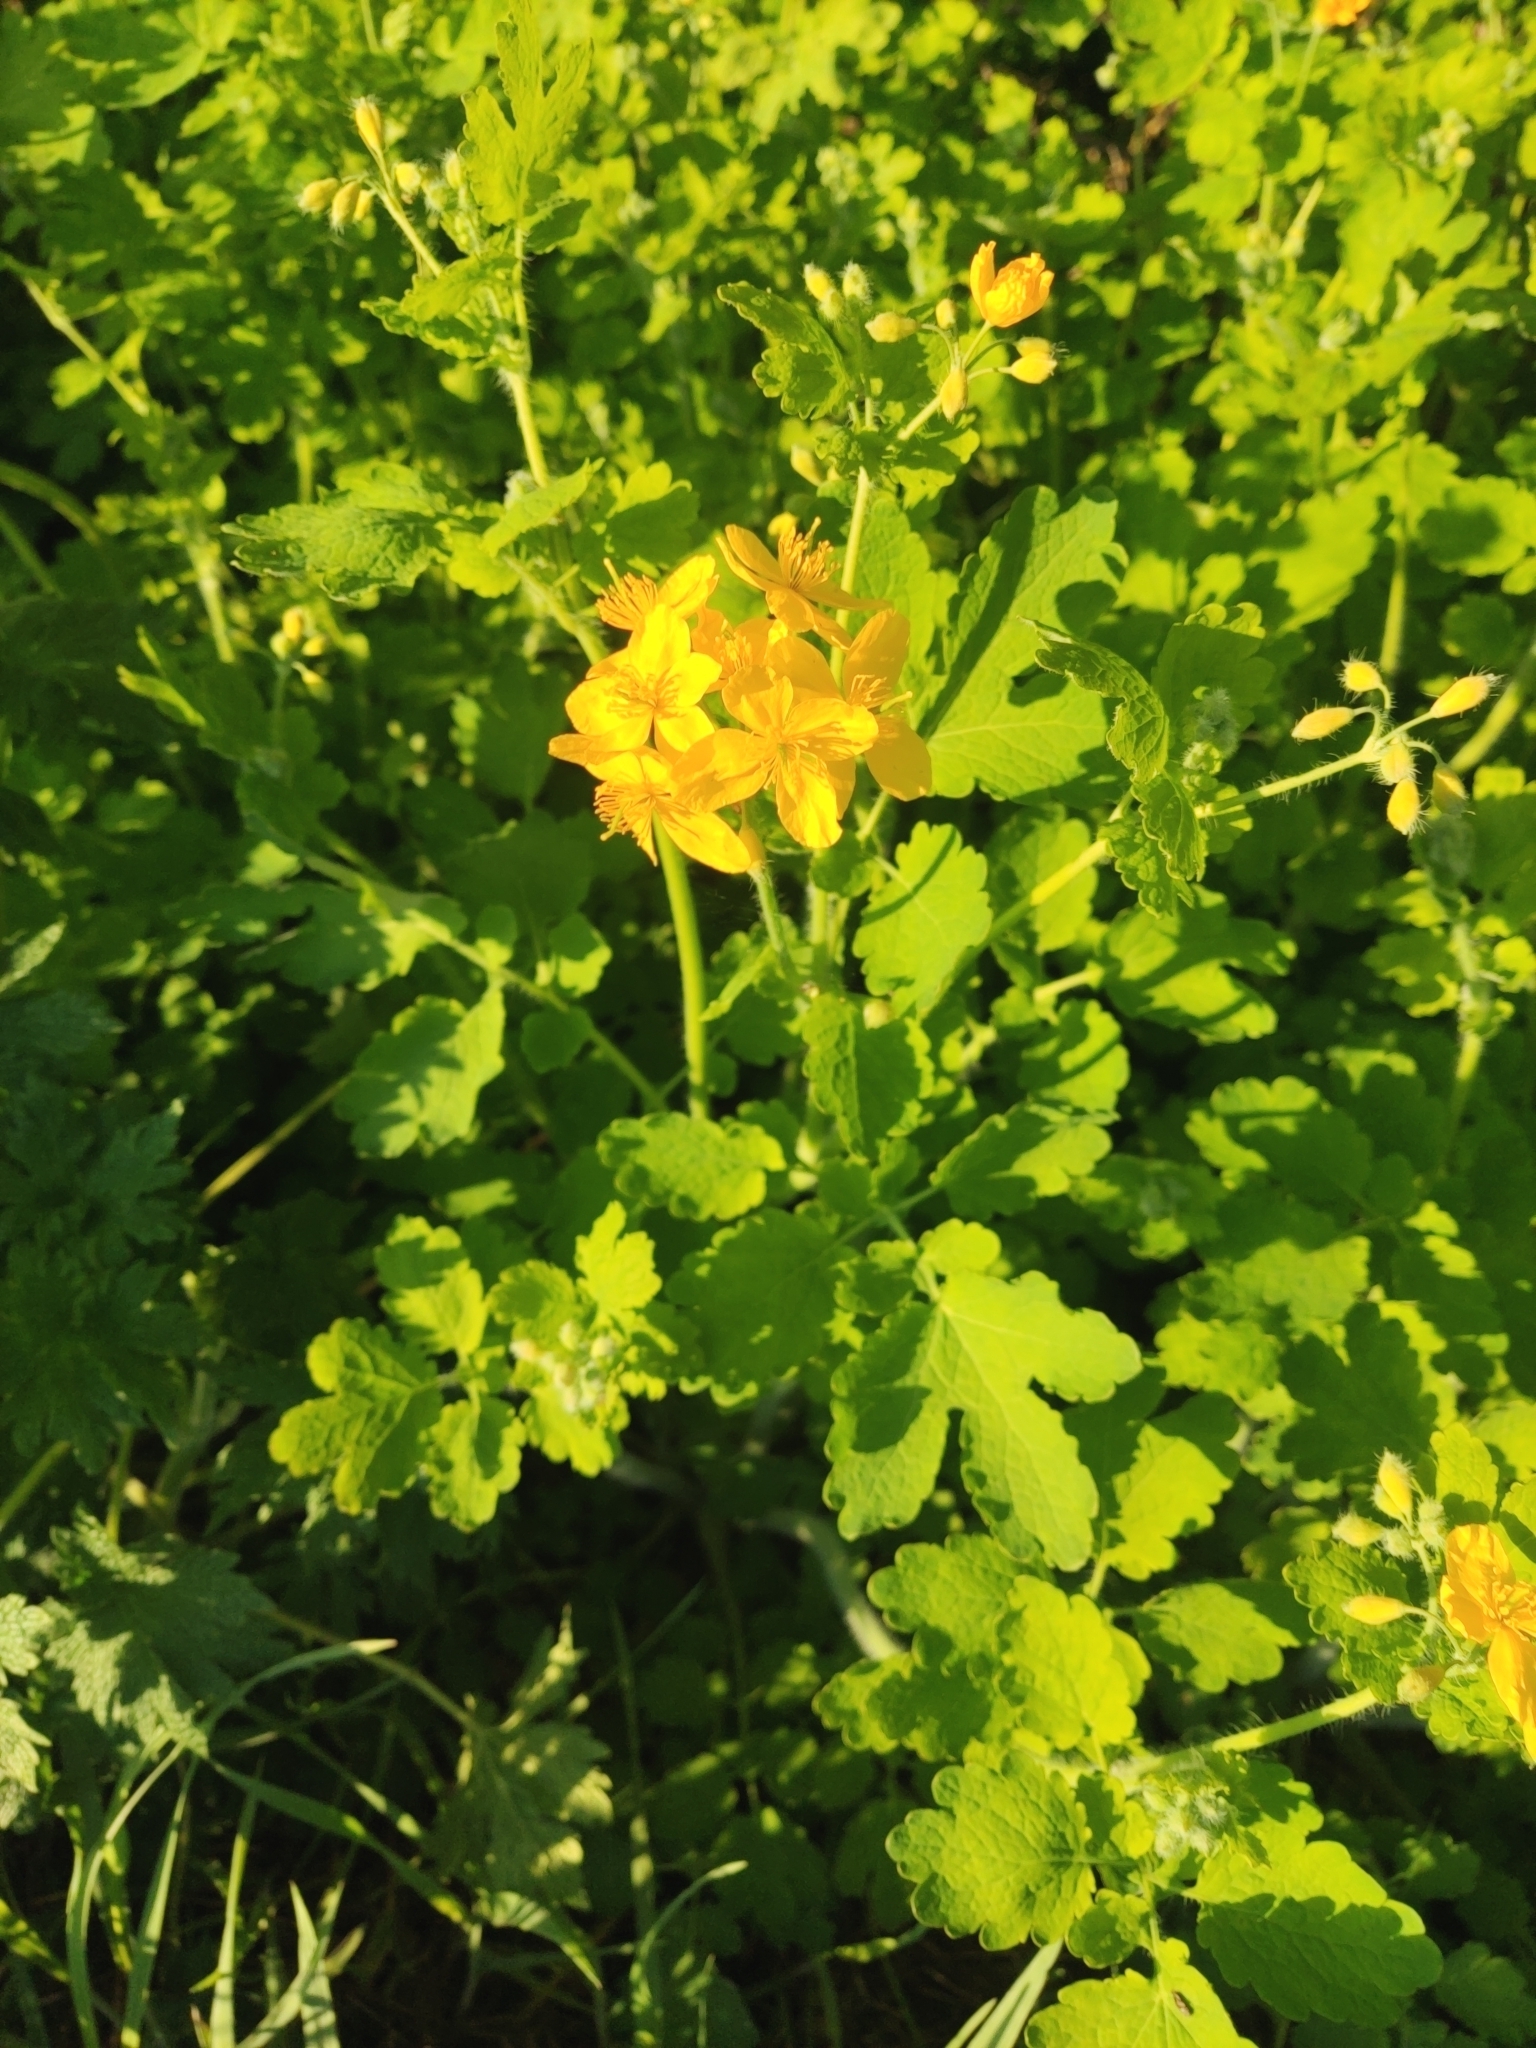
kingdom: Plantae
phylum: Tracheophyta
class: Magnoliopsida
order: Ranunculales
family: Papaveraceae
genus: Chelidonium
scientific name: Chelidonium majus
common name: Greater celandine
